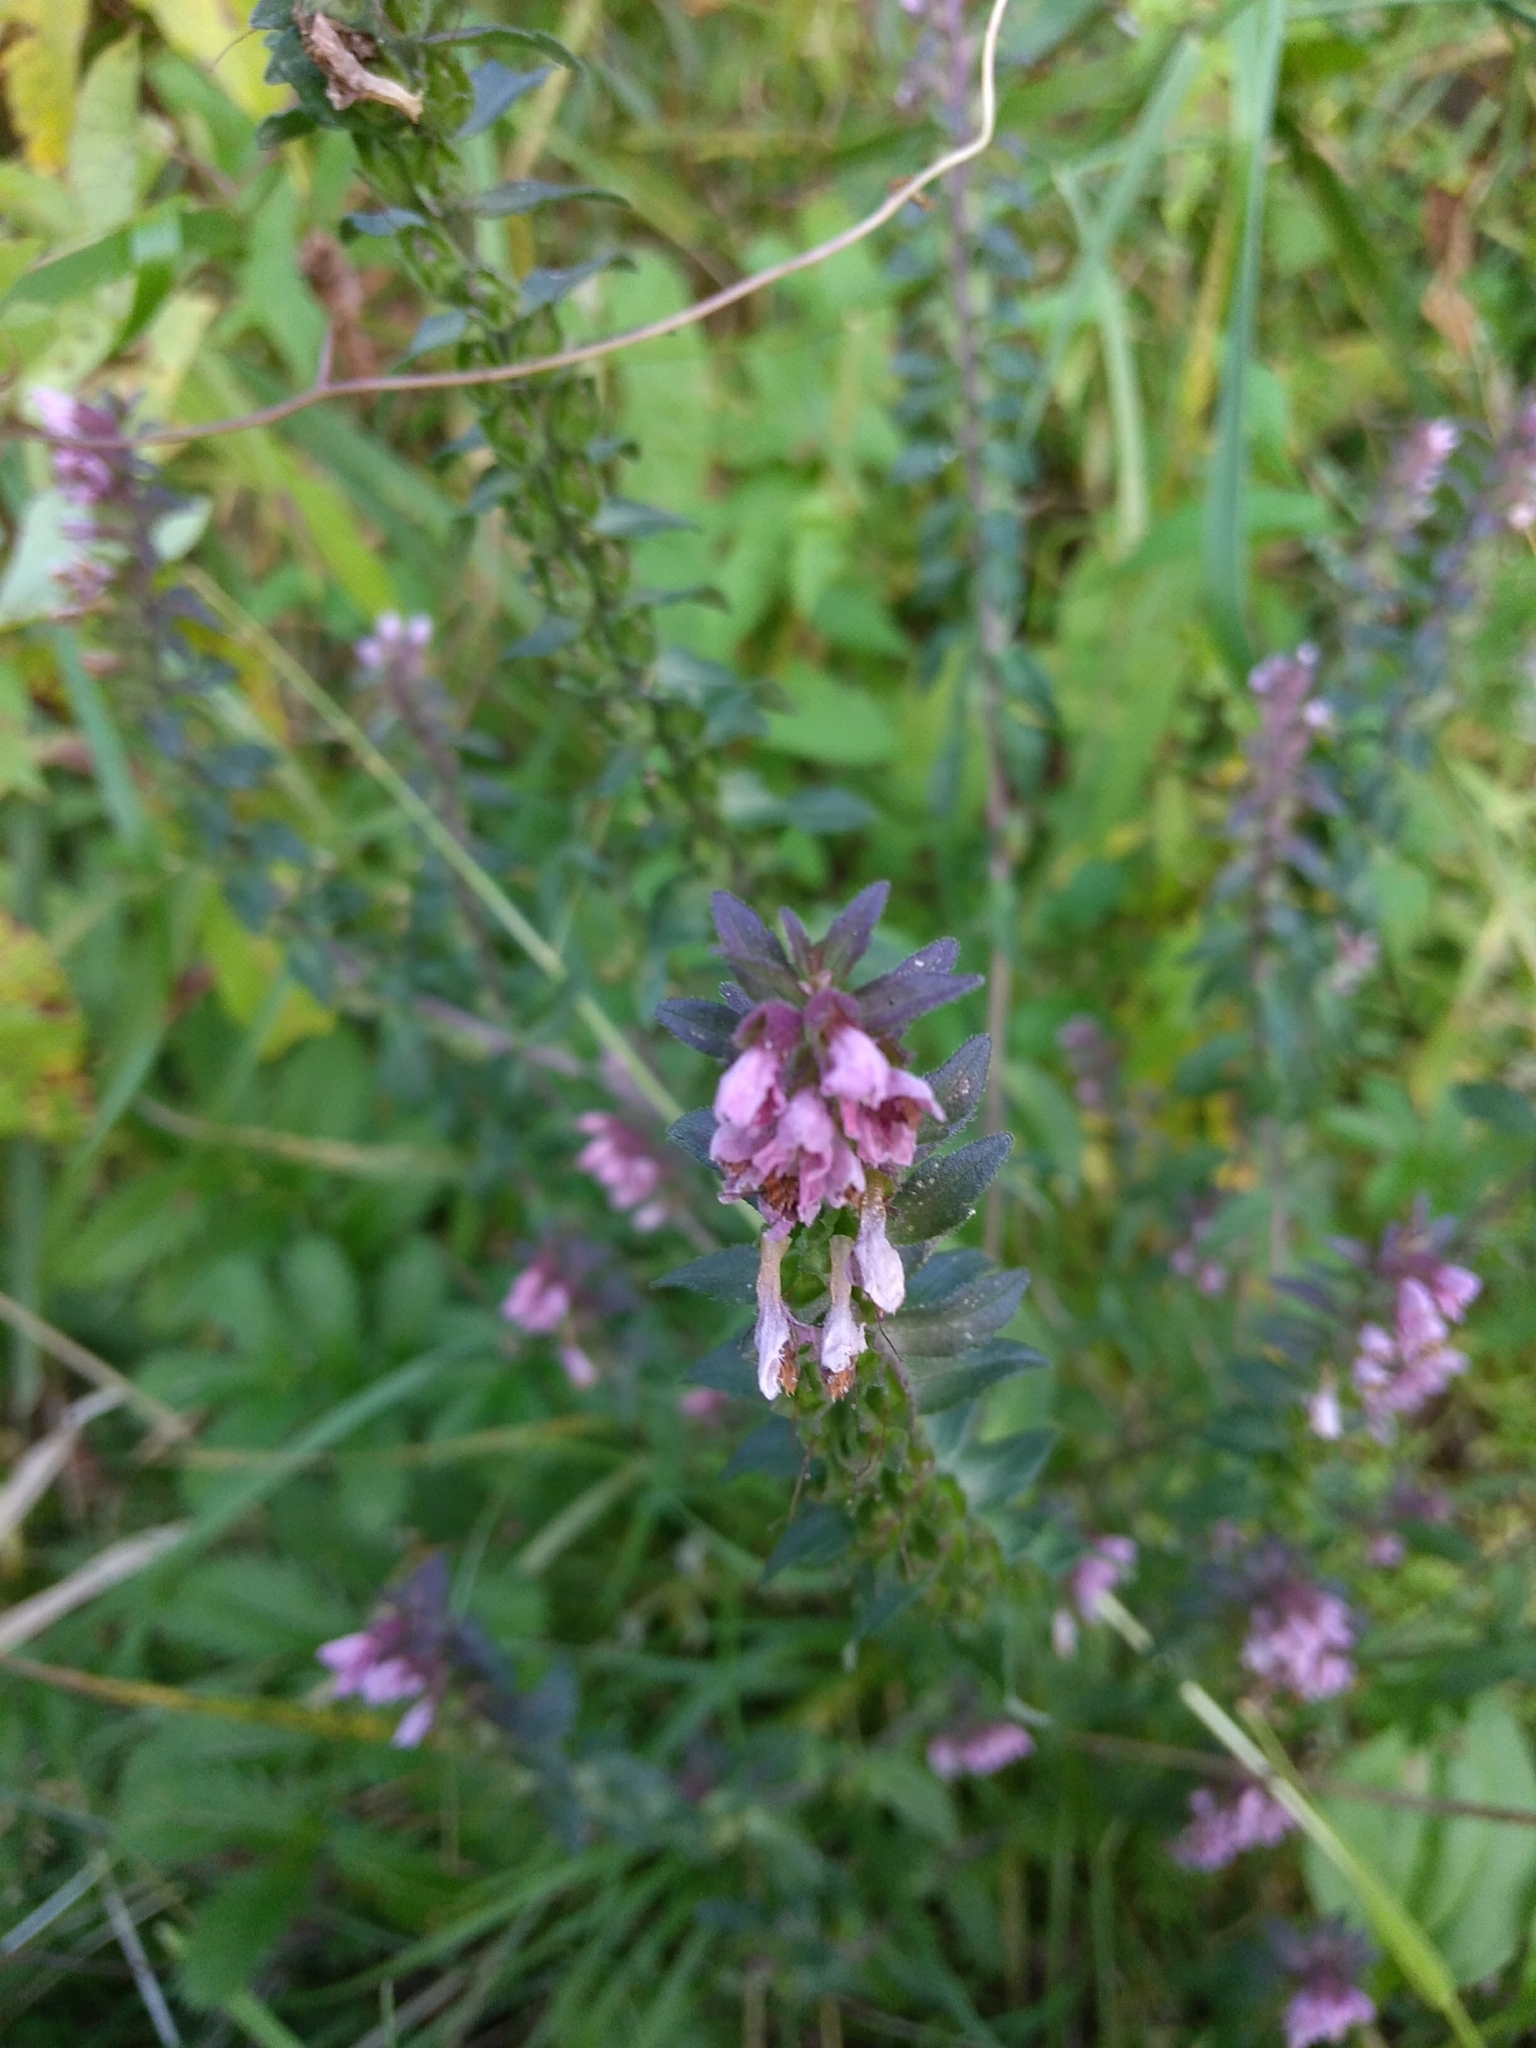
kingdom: Plantae
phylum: Tracheophyta
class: Magnoliopsida
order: Lamiales
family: Orobanchaceae
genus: Odontites
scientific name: Odontites vulgaris
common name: Broomrape
